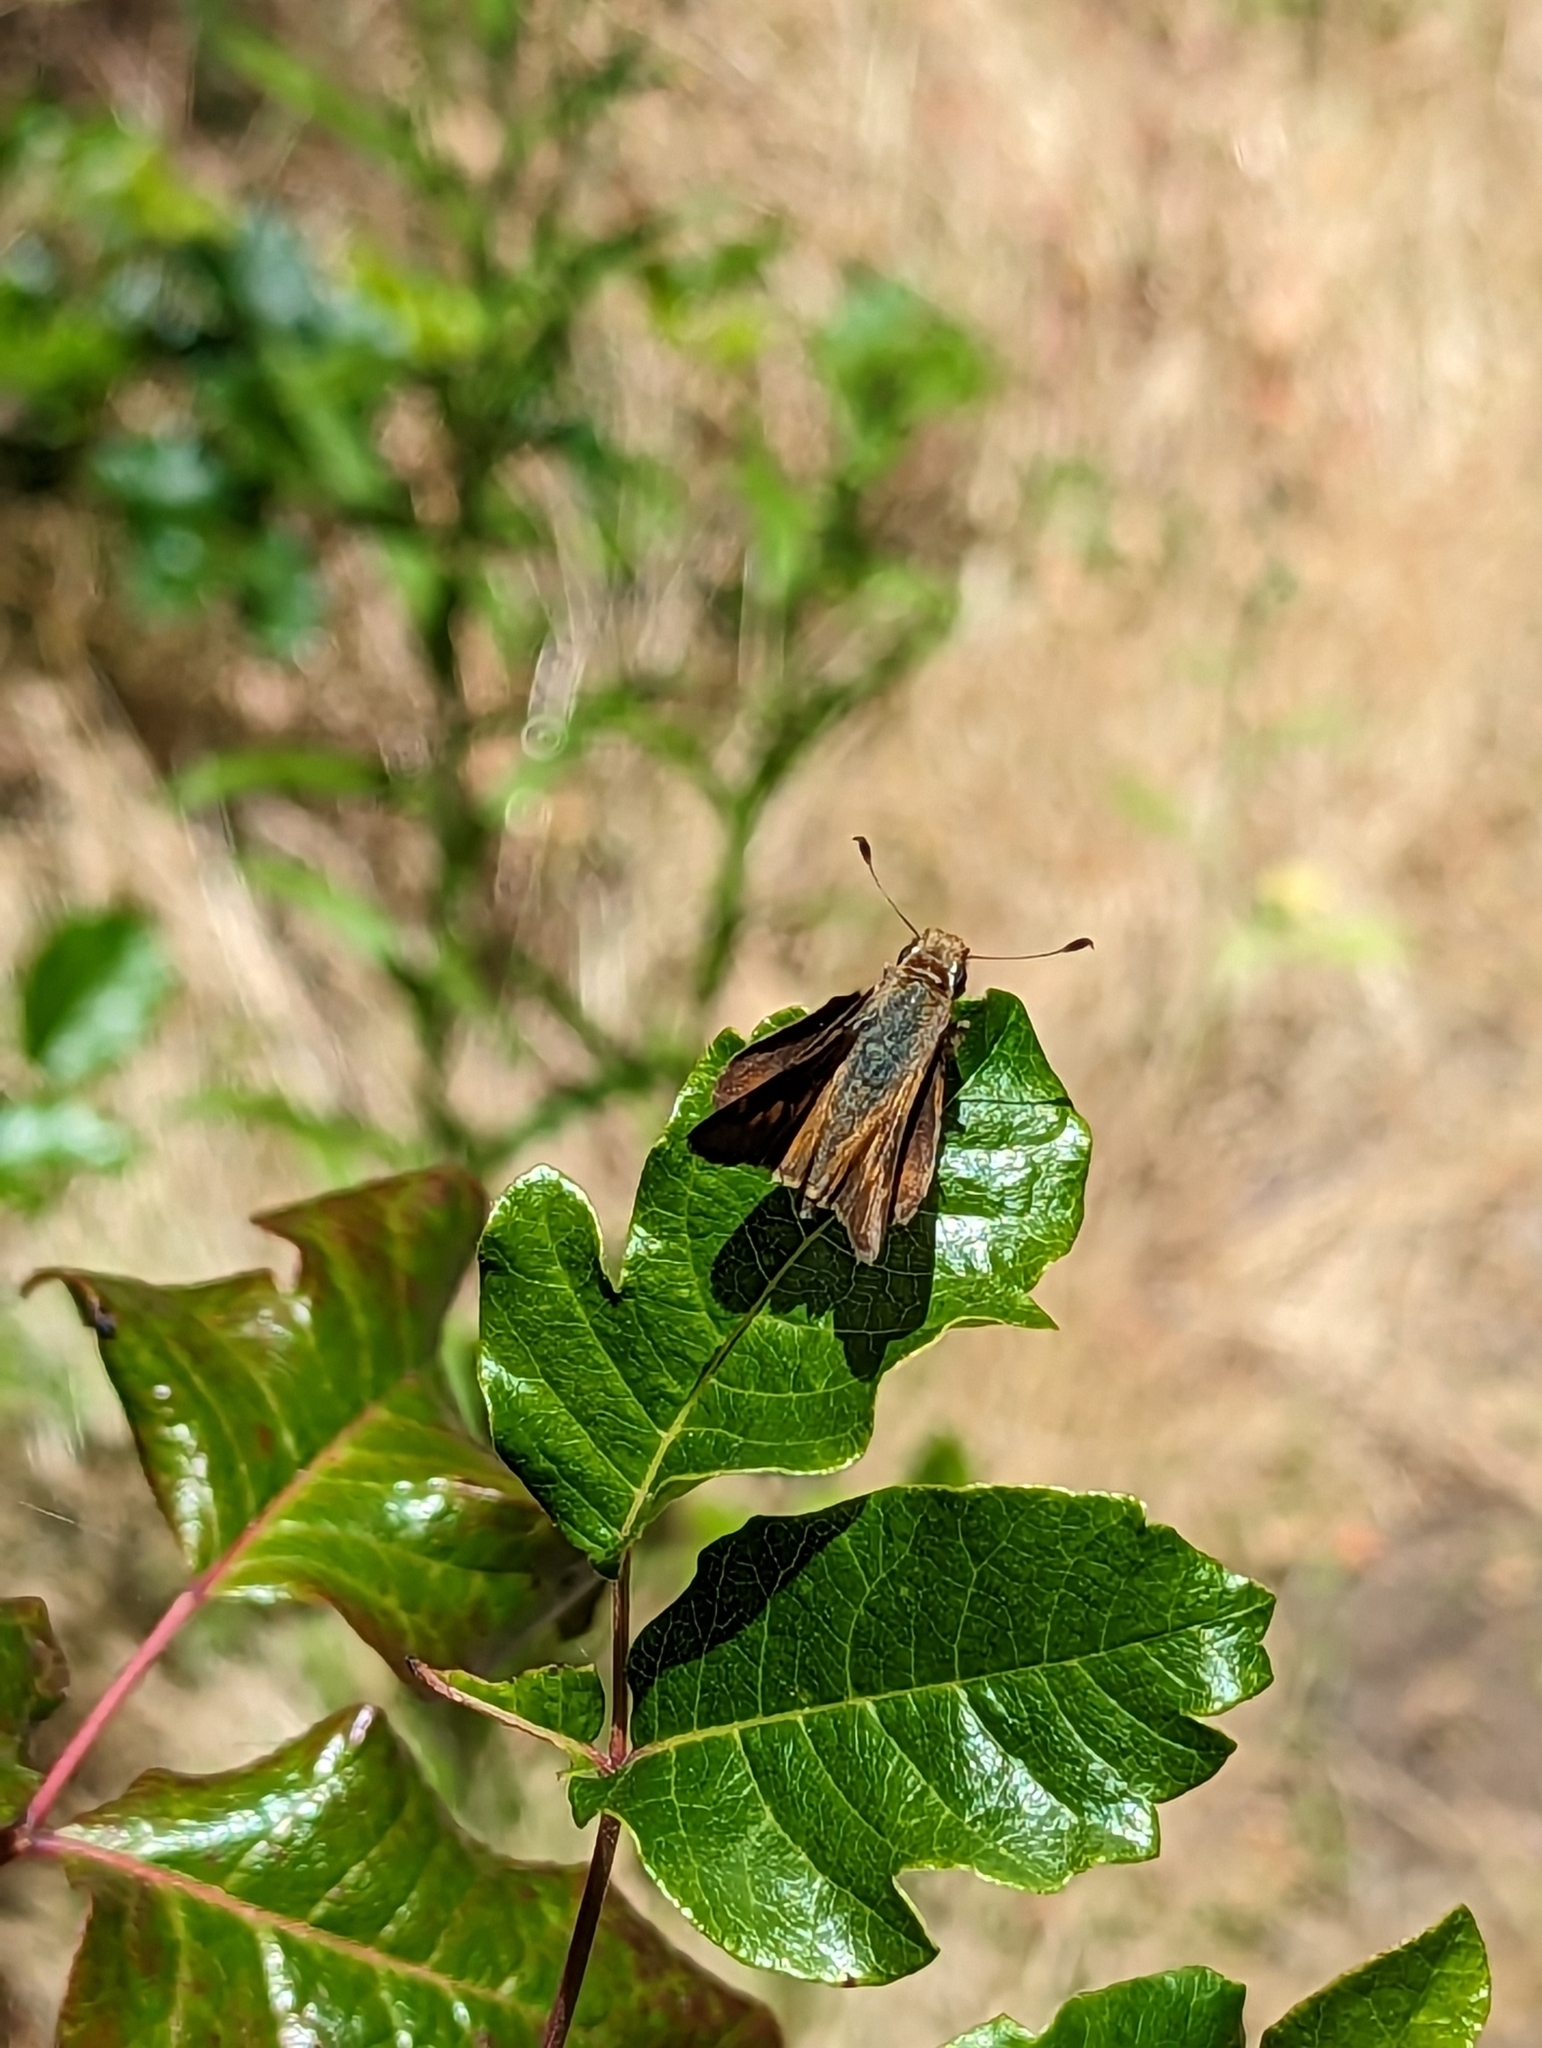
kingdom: Animalia
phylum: Arthropoda
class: Insecta
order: Lepidoptera
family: Hesperiidae
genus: Lon
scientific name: Lon melane
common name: Umber skipper
